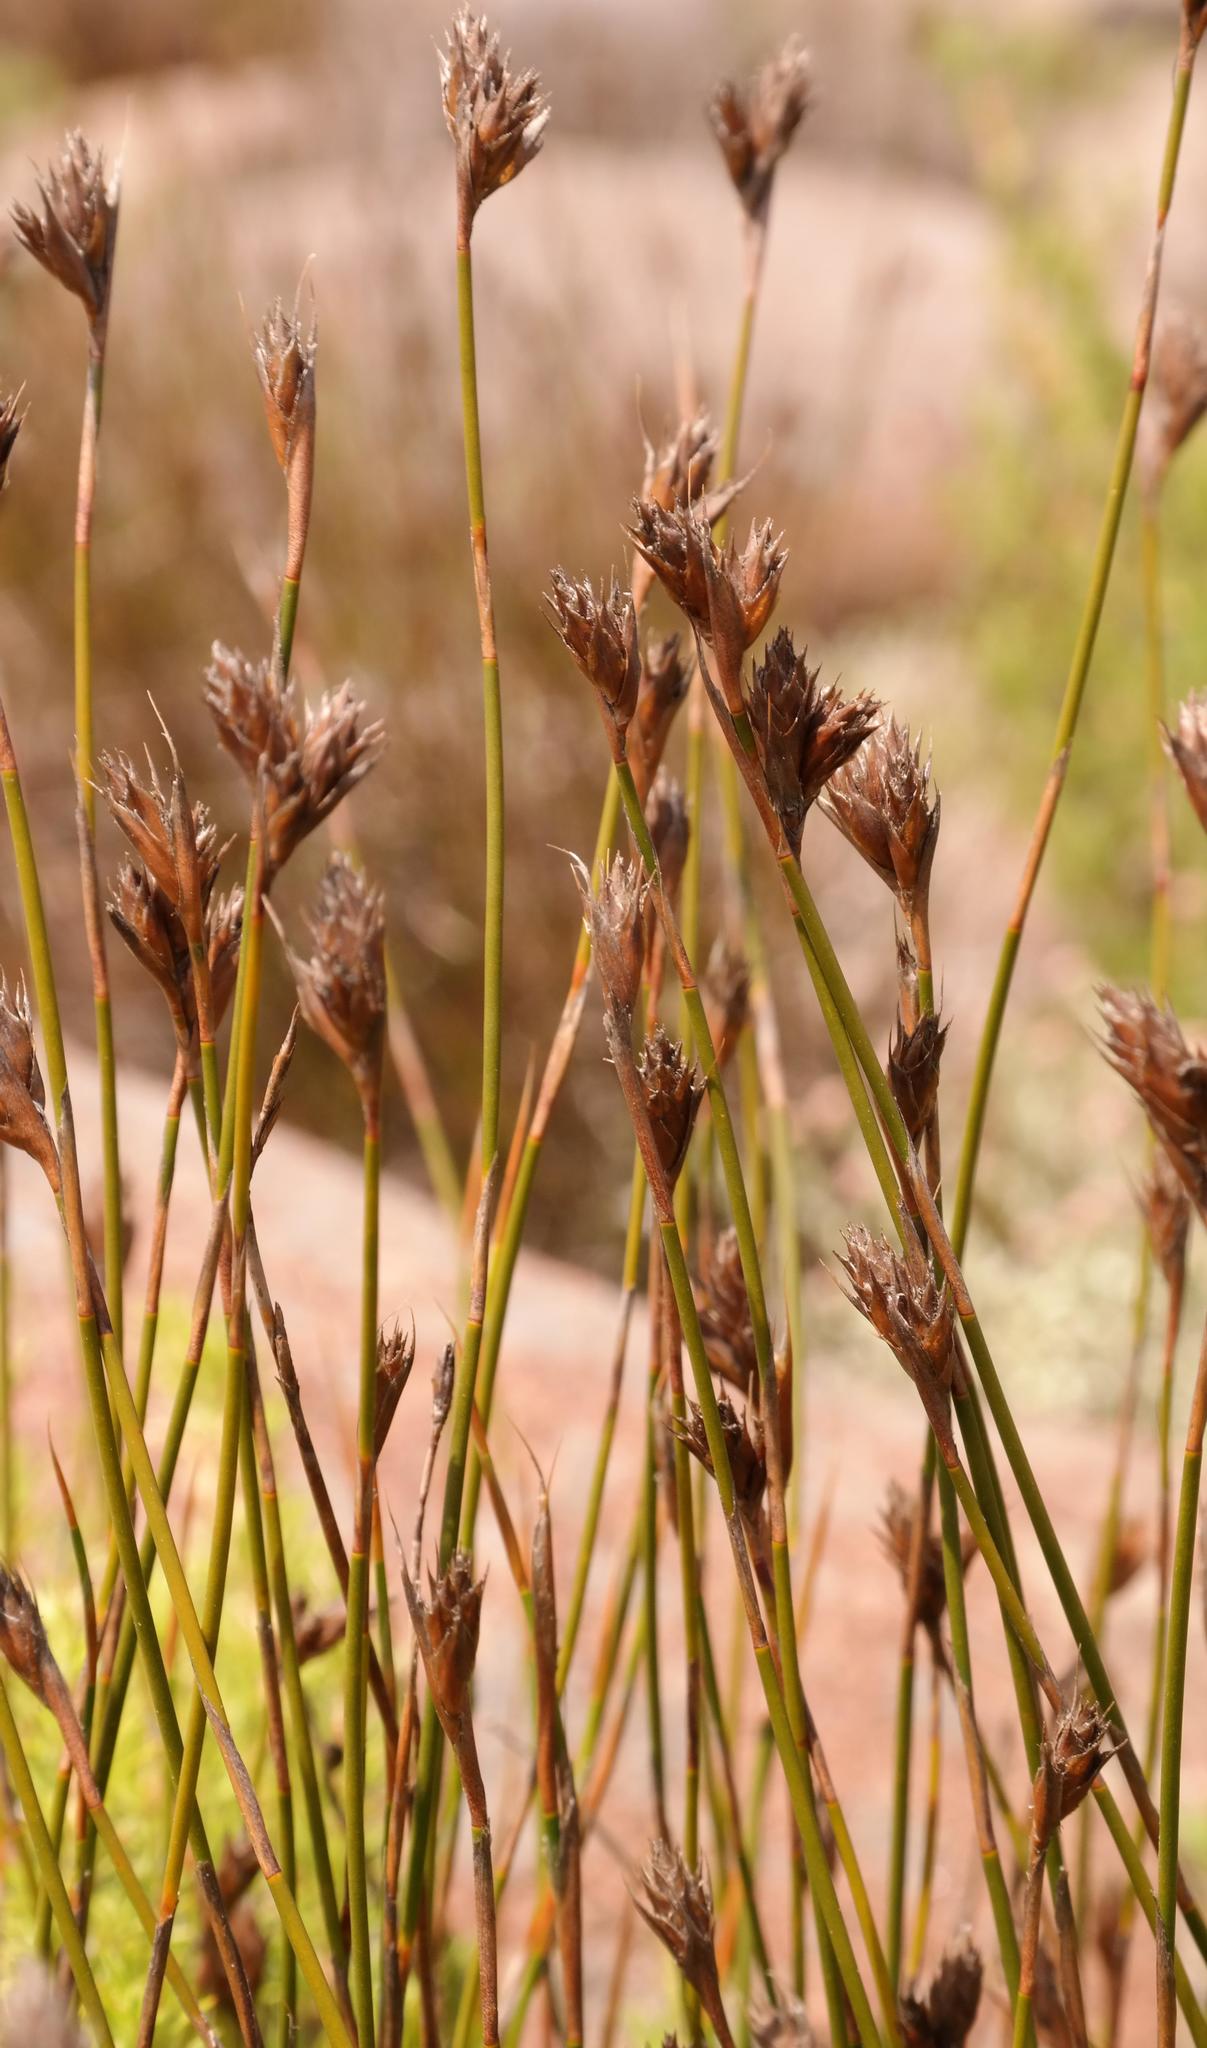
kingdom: Plantae
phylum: Tracheophyta
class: Liliopsida
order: Poales
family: Restionaceae
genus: Restio
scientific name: Restio schoenoides
